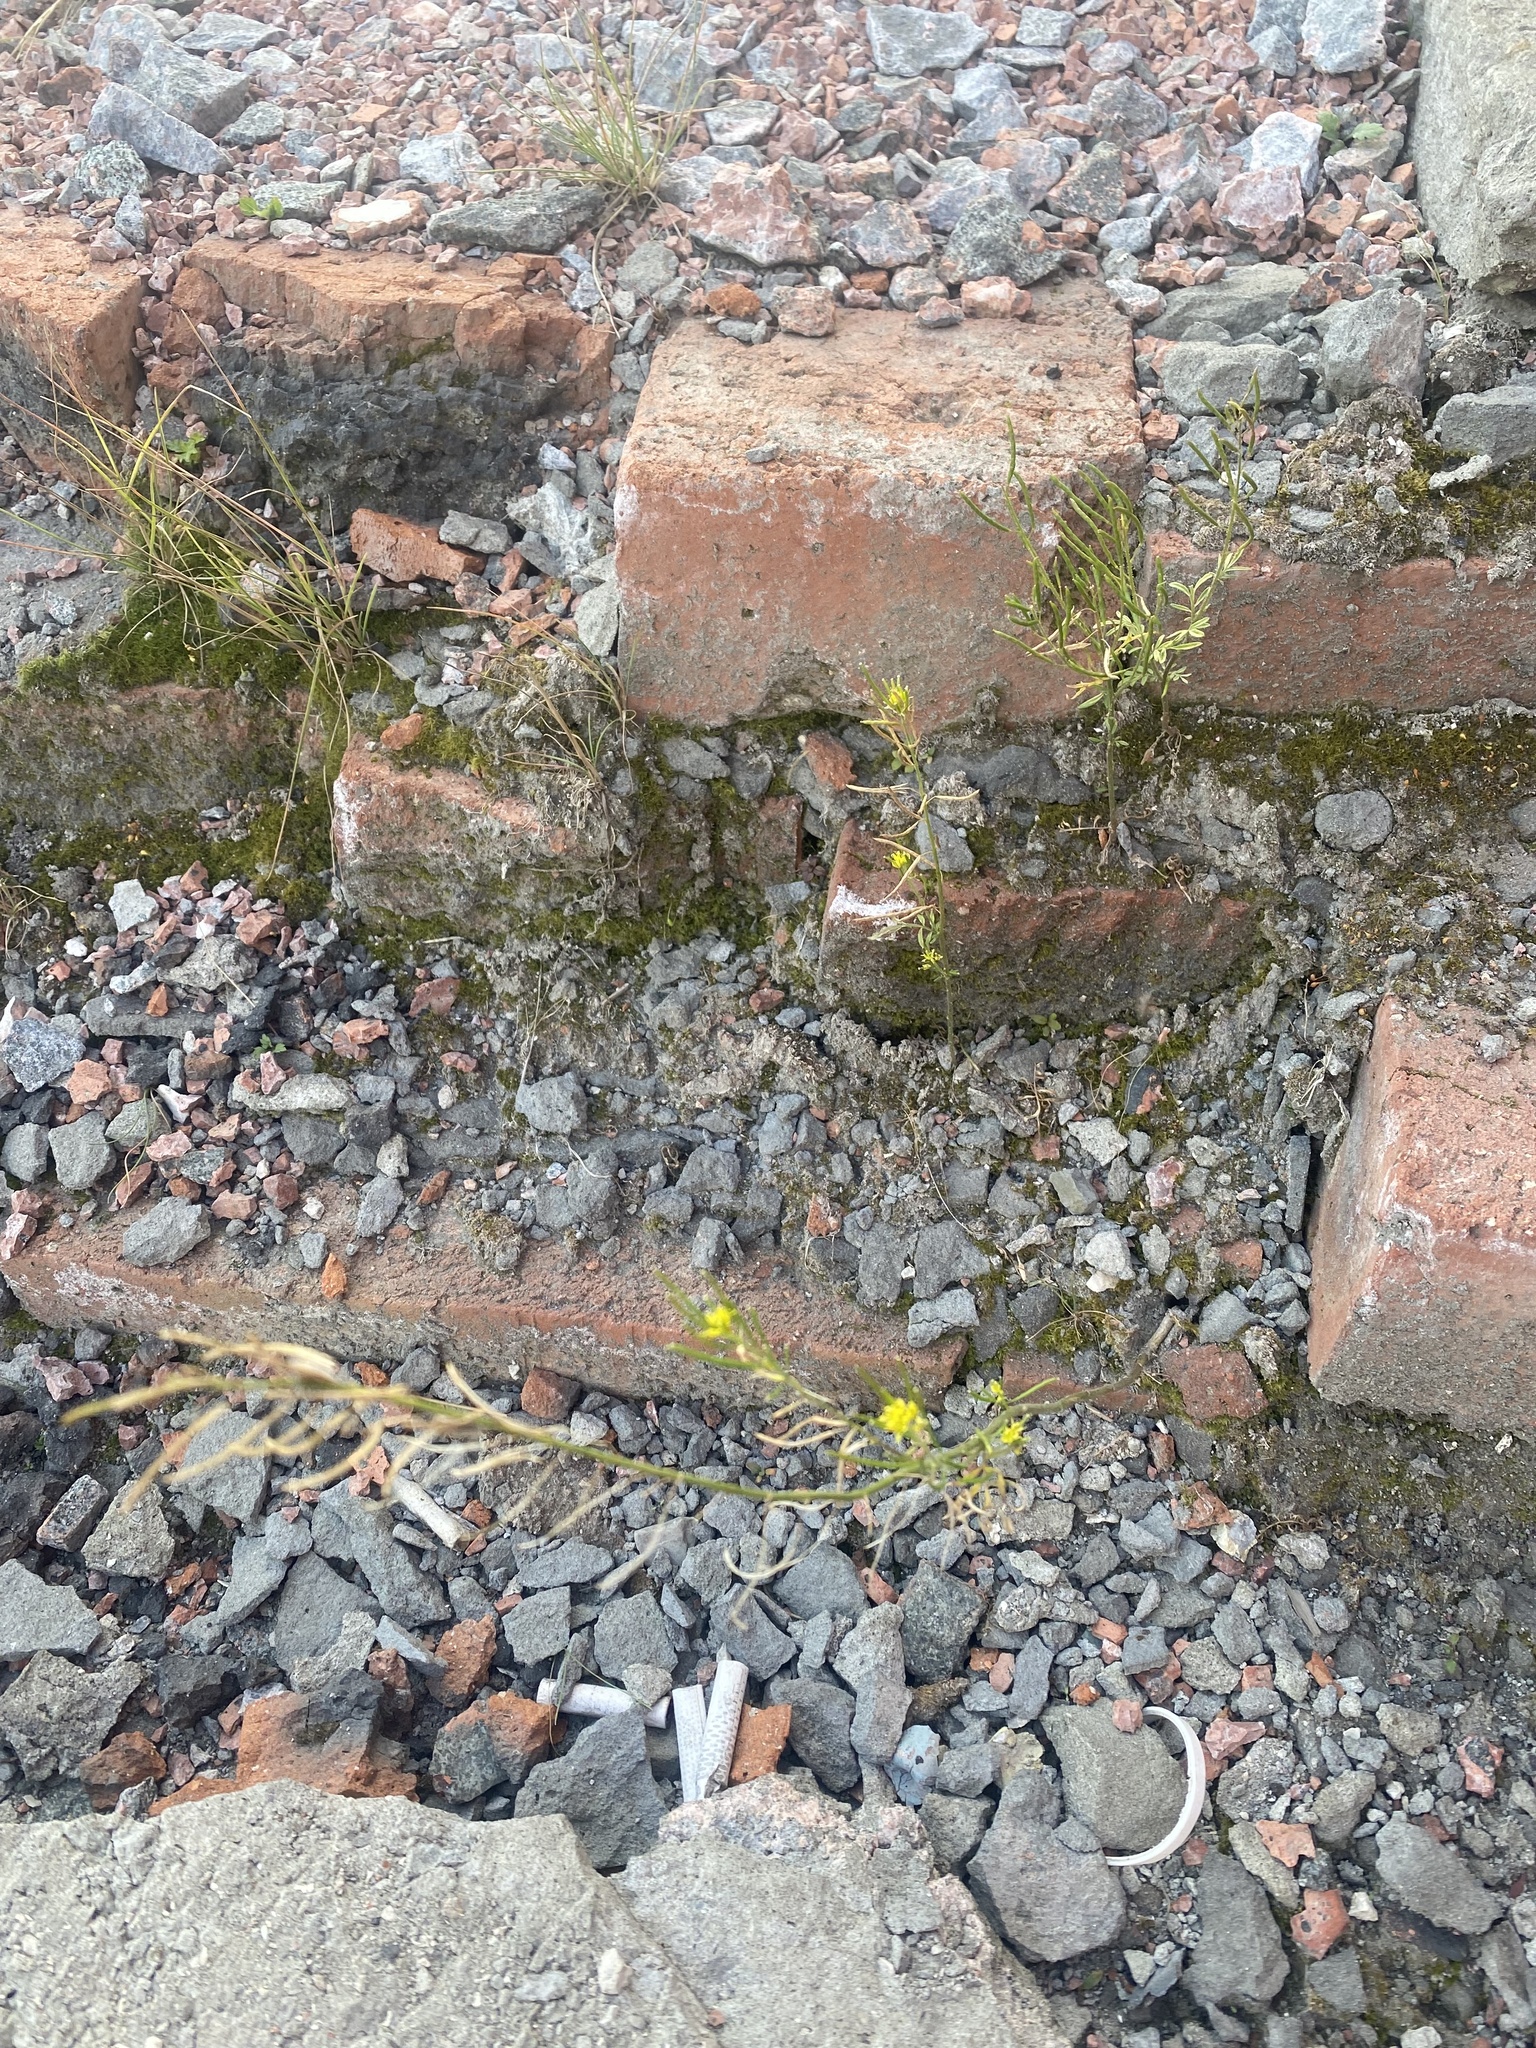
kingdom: Plantae
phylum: Tracheophyta
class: Magnoliopsida
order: Brassicales
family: Brassicaceae
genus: Erysimum
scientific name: Erysimum cheiranthoides
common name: Treacle mustard
